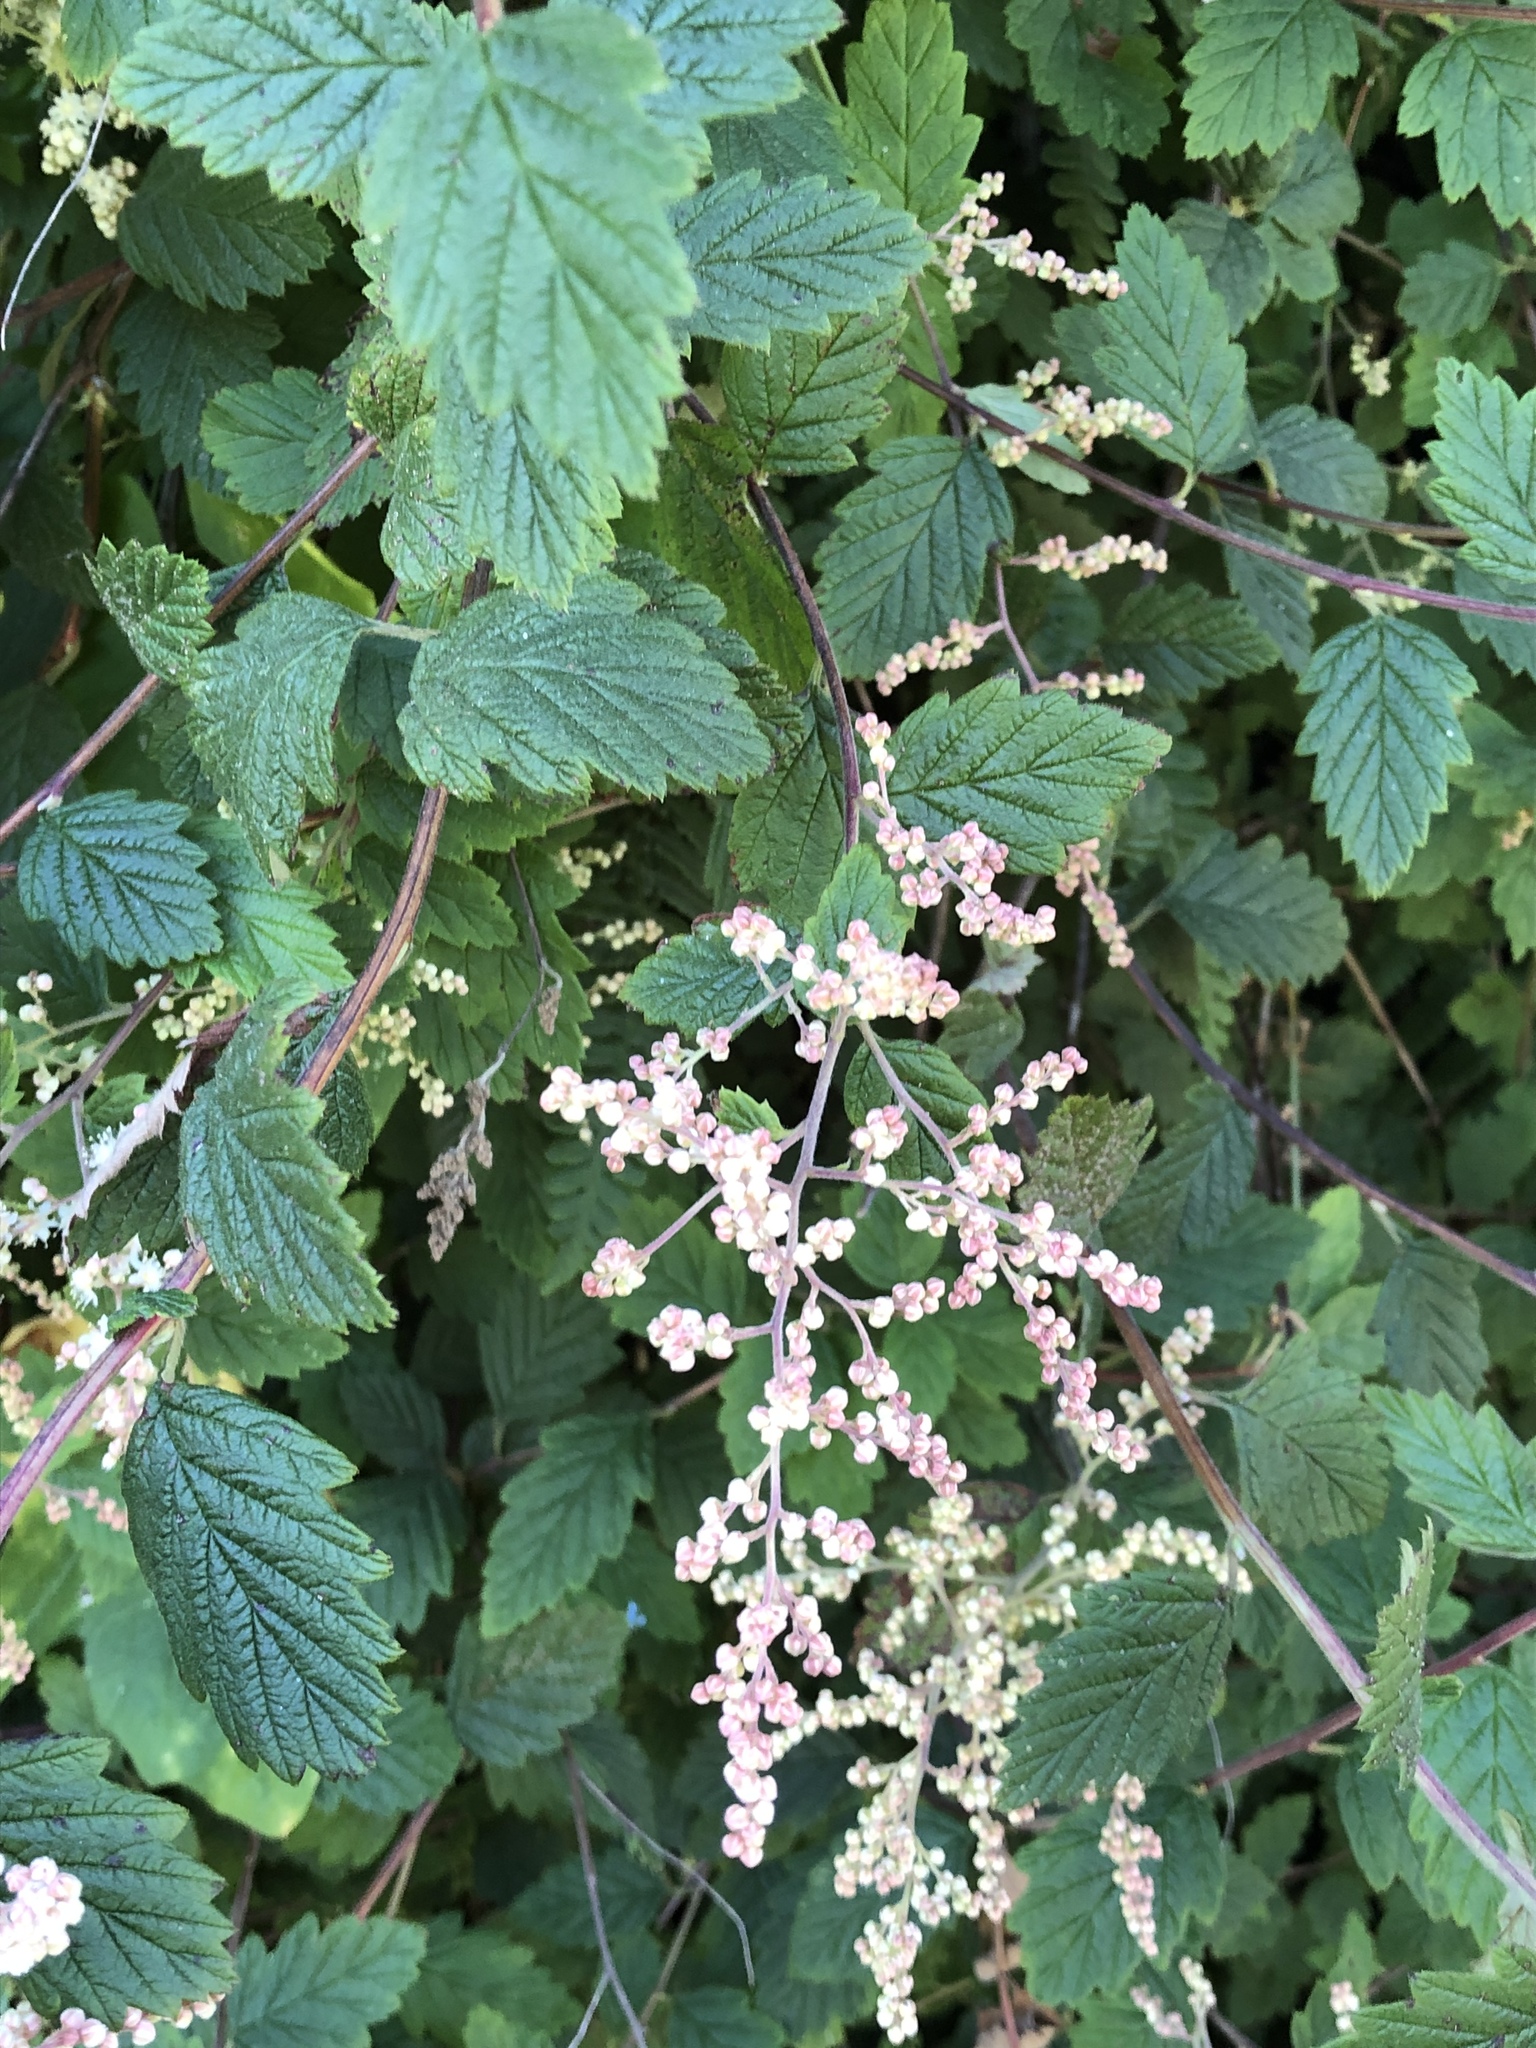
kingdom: Plantae
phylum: Tracheophyta
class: Magnoliopsida
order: Rosales
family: Rosaceae
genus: Holodiscus
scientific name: Holodiscus discolor
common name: Oceanspray
